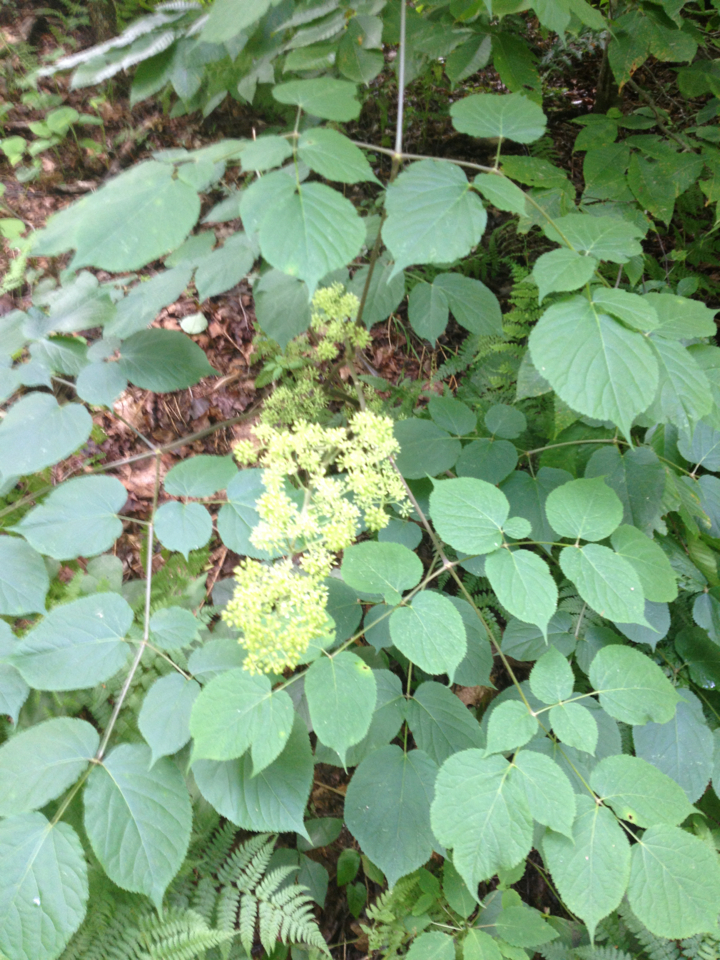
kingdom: Plantae
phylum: Tracheophyta
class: Magnoliopsida
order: Apiales
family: Araliaceae
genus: Aralia
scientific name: Aralia racemosa
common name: American-spikenard
